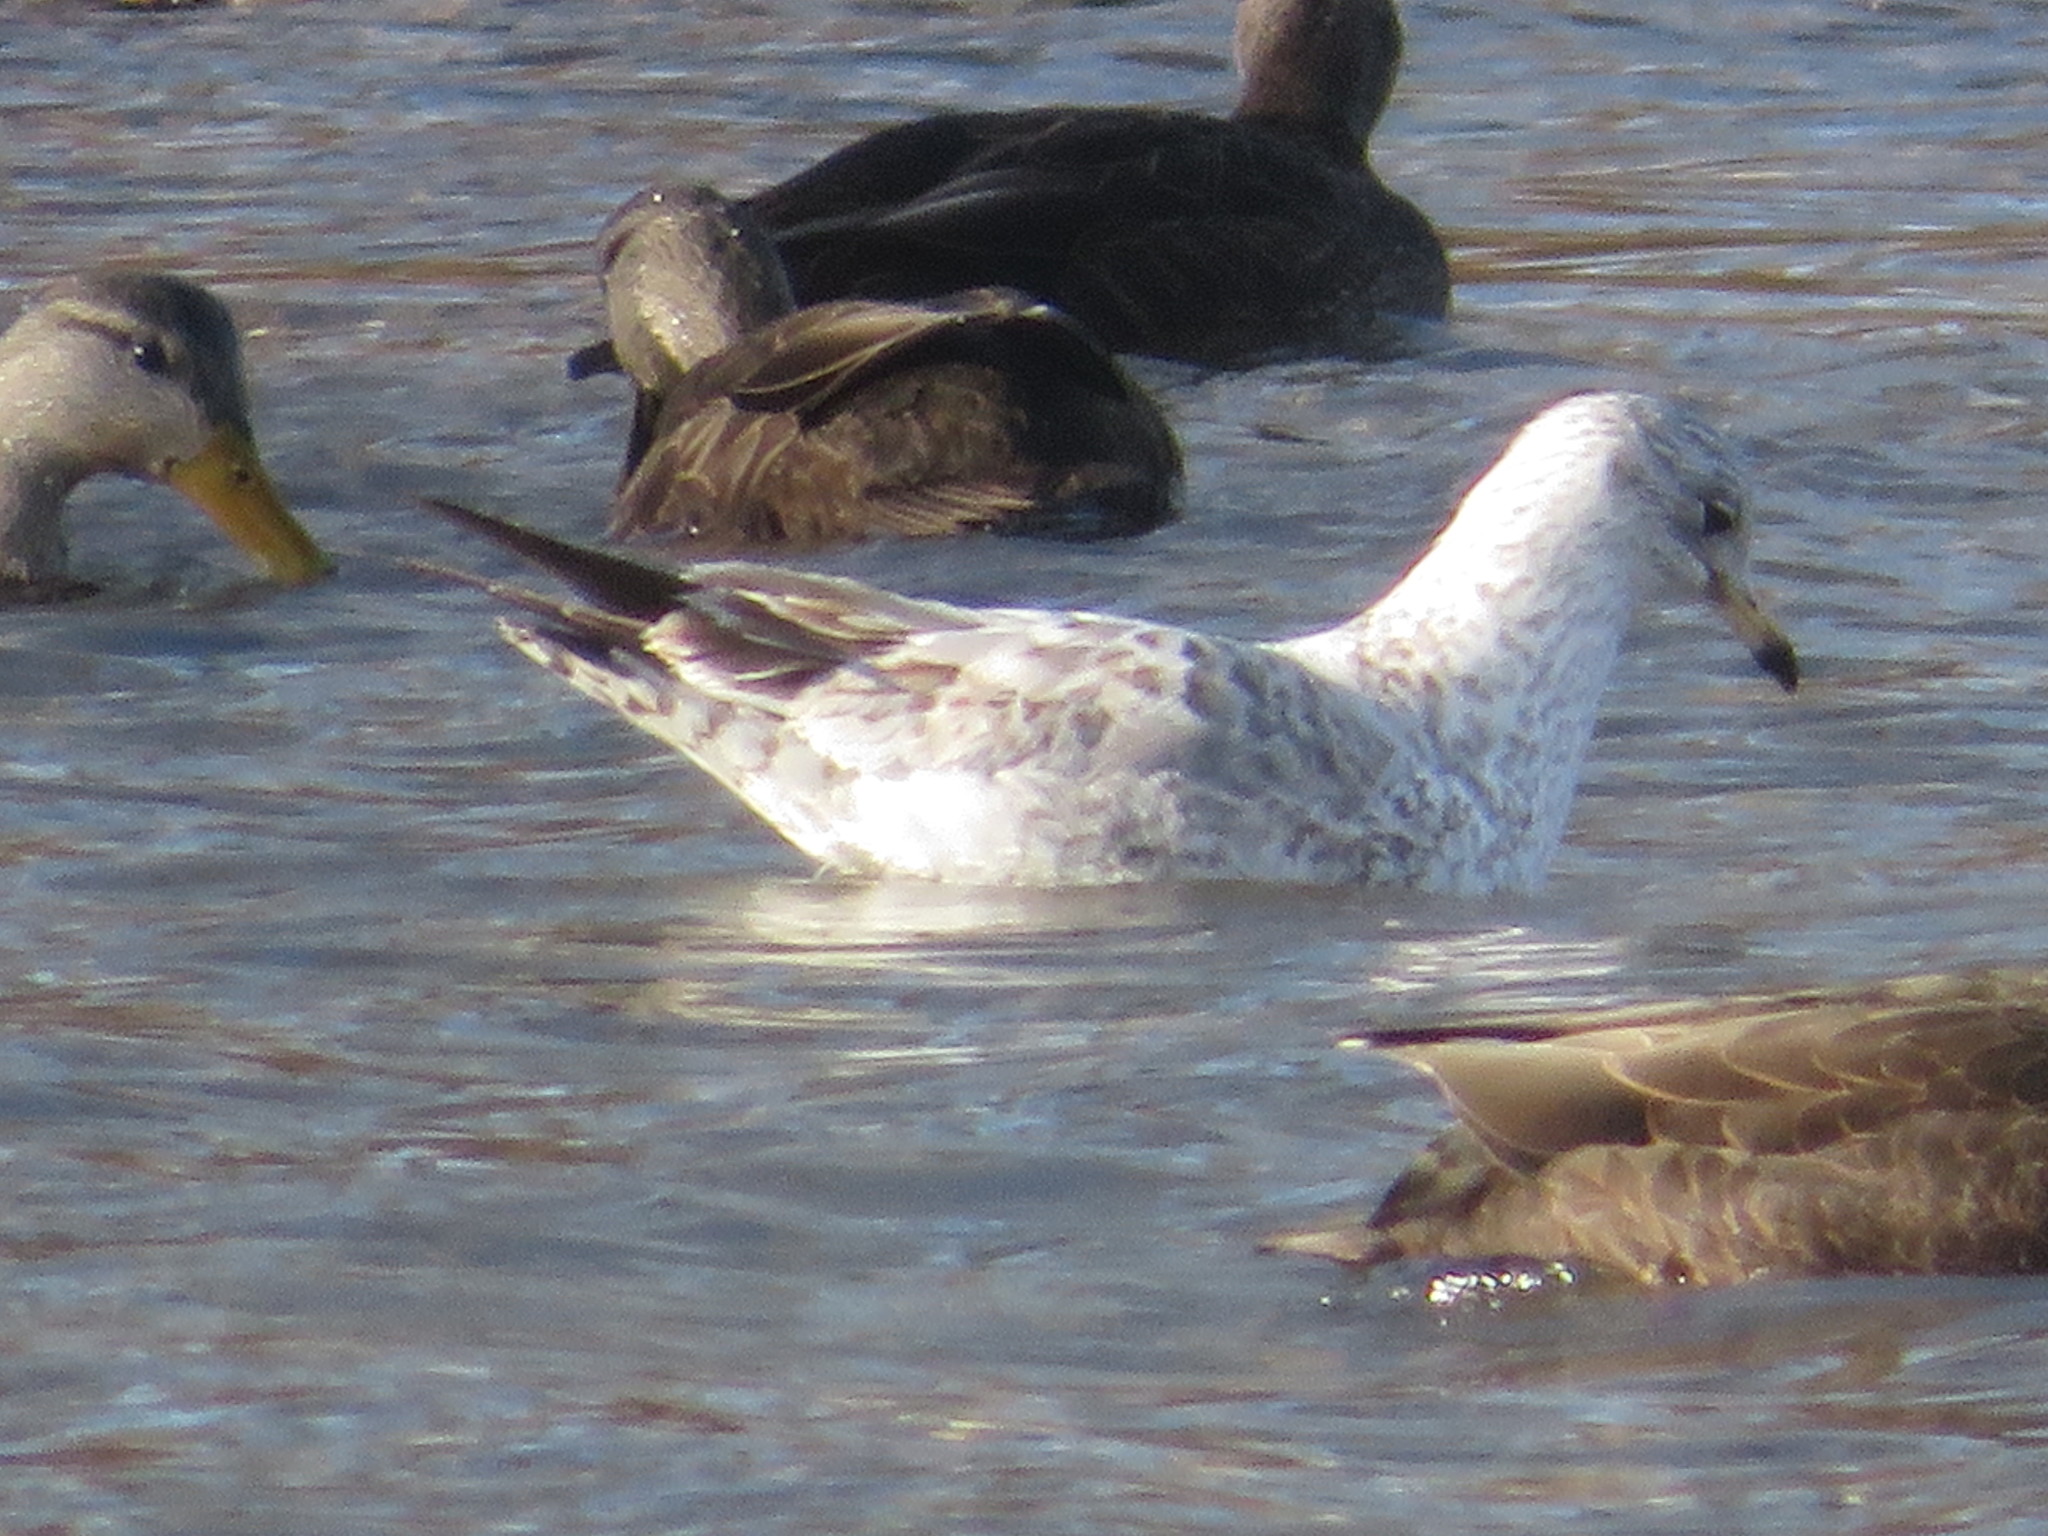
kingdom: Animalia
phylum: Chordata
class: Aves
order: Charadriiformes
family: Laridae
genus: Larus
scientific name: Larus delawarensis
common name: Ring-billed gull
